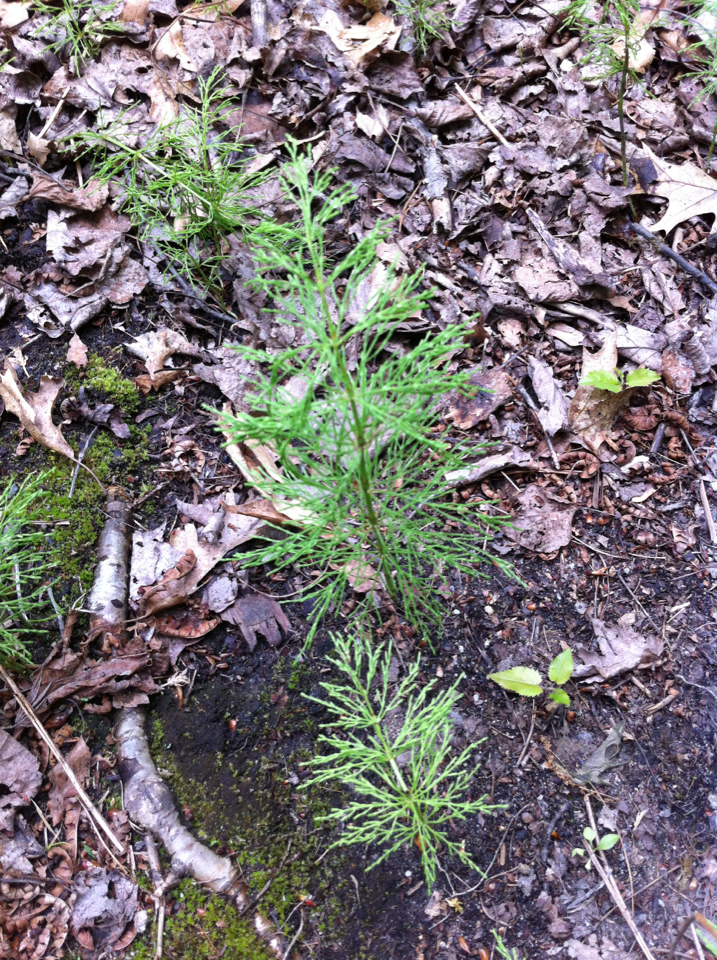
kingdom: Plantae
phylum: Tracheophyta
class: Polypodiopsida
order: Equisetales
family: Equisetaceae
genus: Equisetum
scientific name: Equisetum sylvaticum
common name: Wood horsetail
